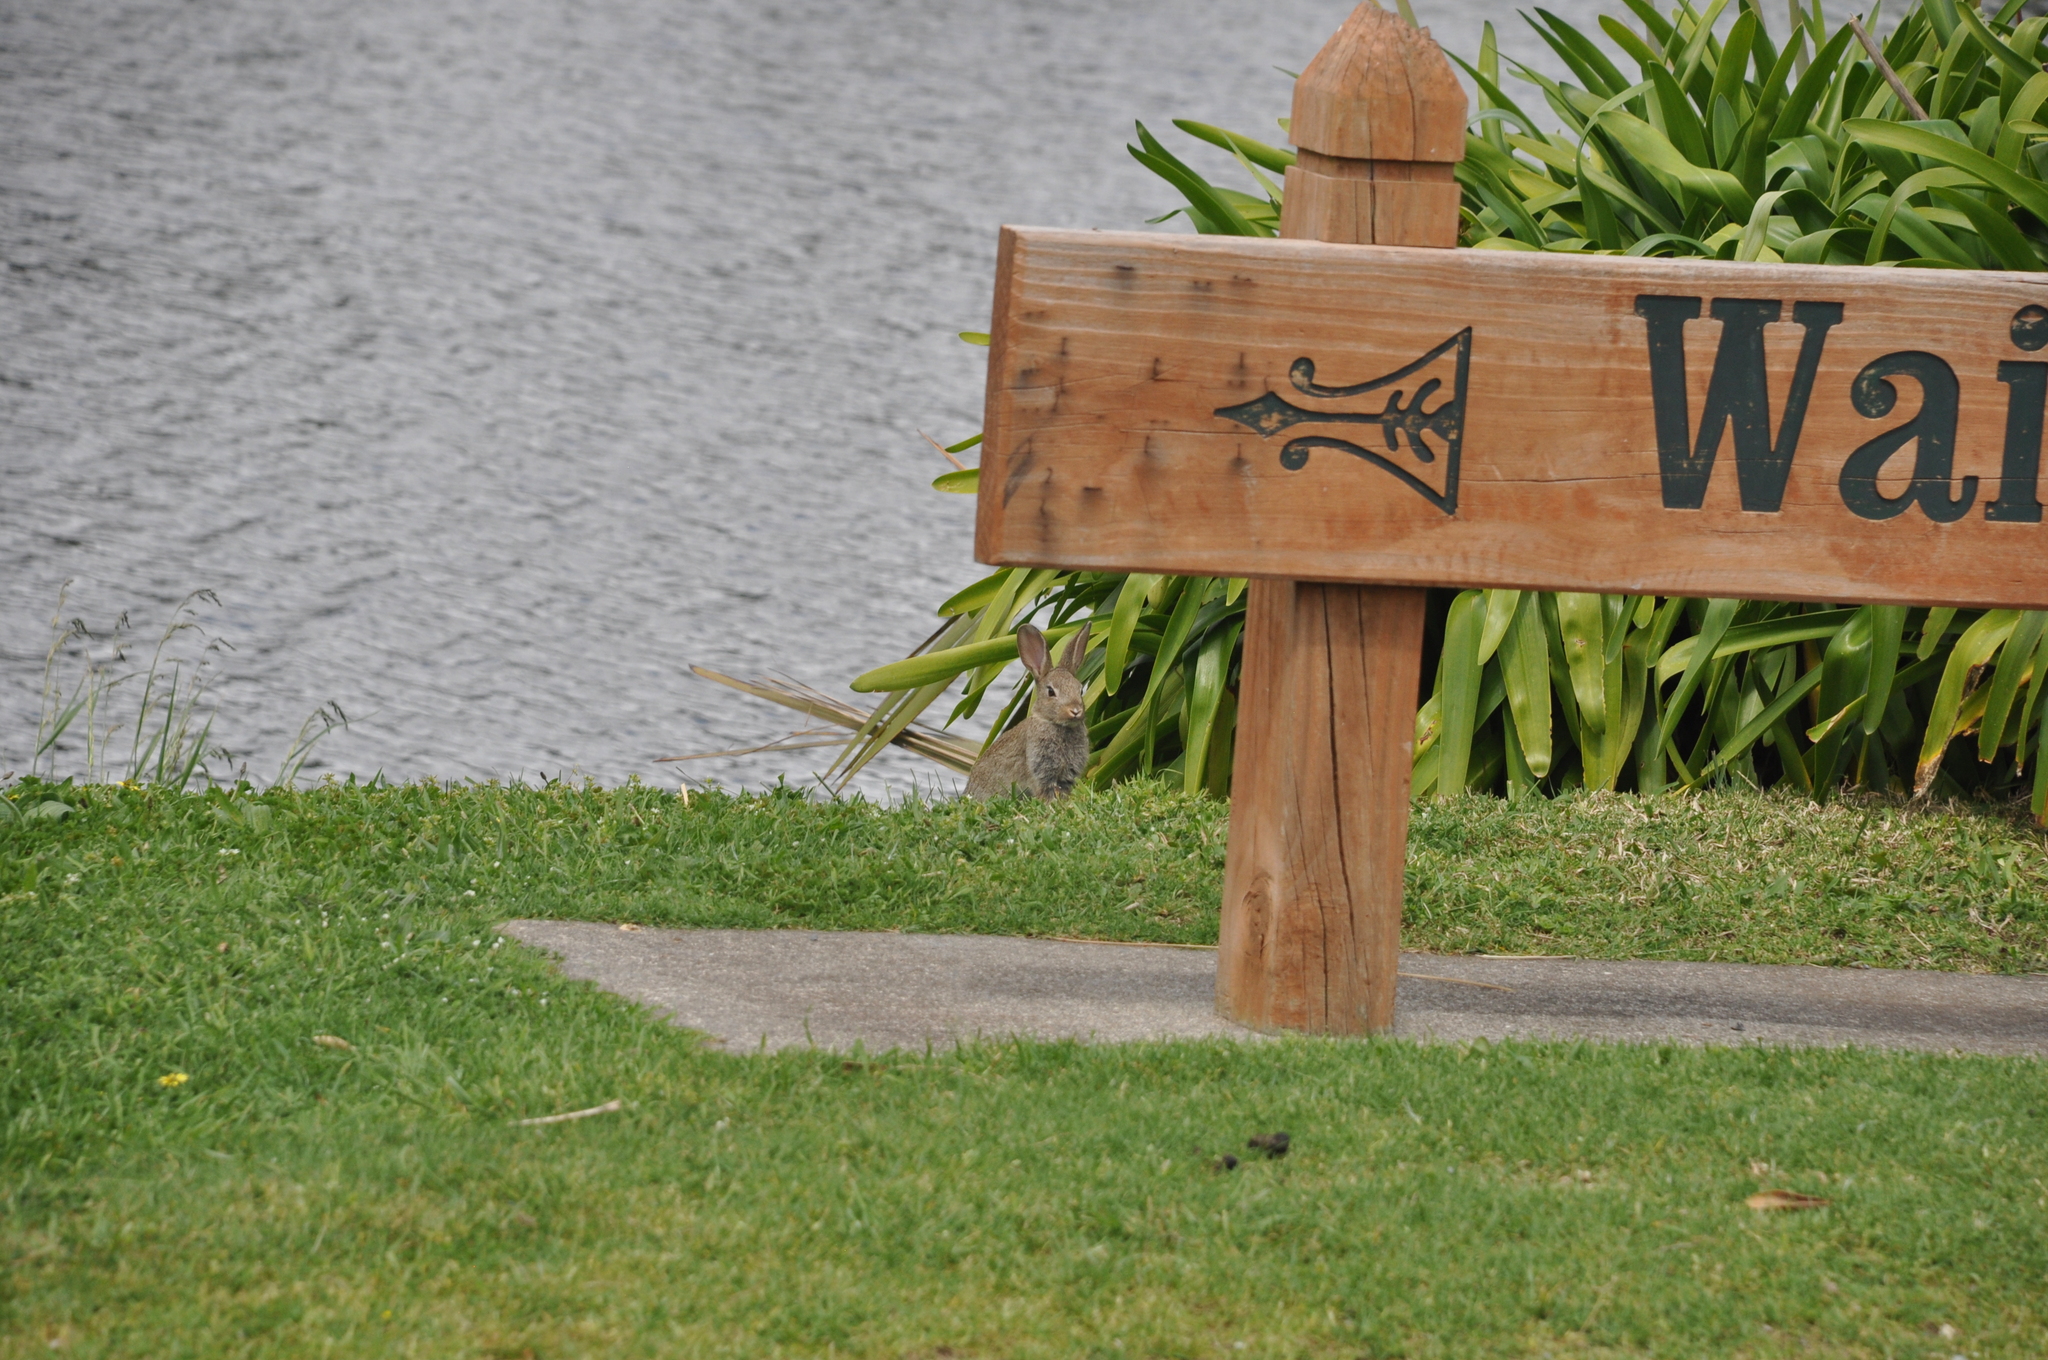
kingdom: Animalia
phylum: Chordata
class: Mammalia
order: Lagomorpha
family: Leporidae
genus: Oryctolagus
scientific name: Oryctolagus cuniculus
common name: European rabbit
